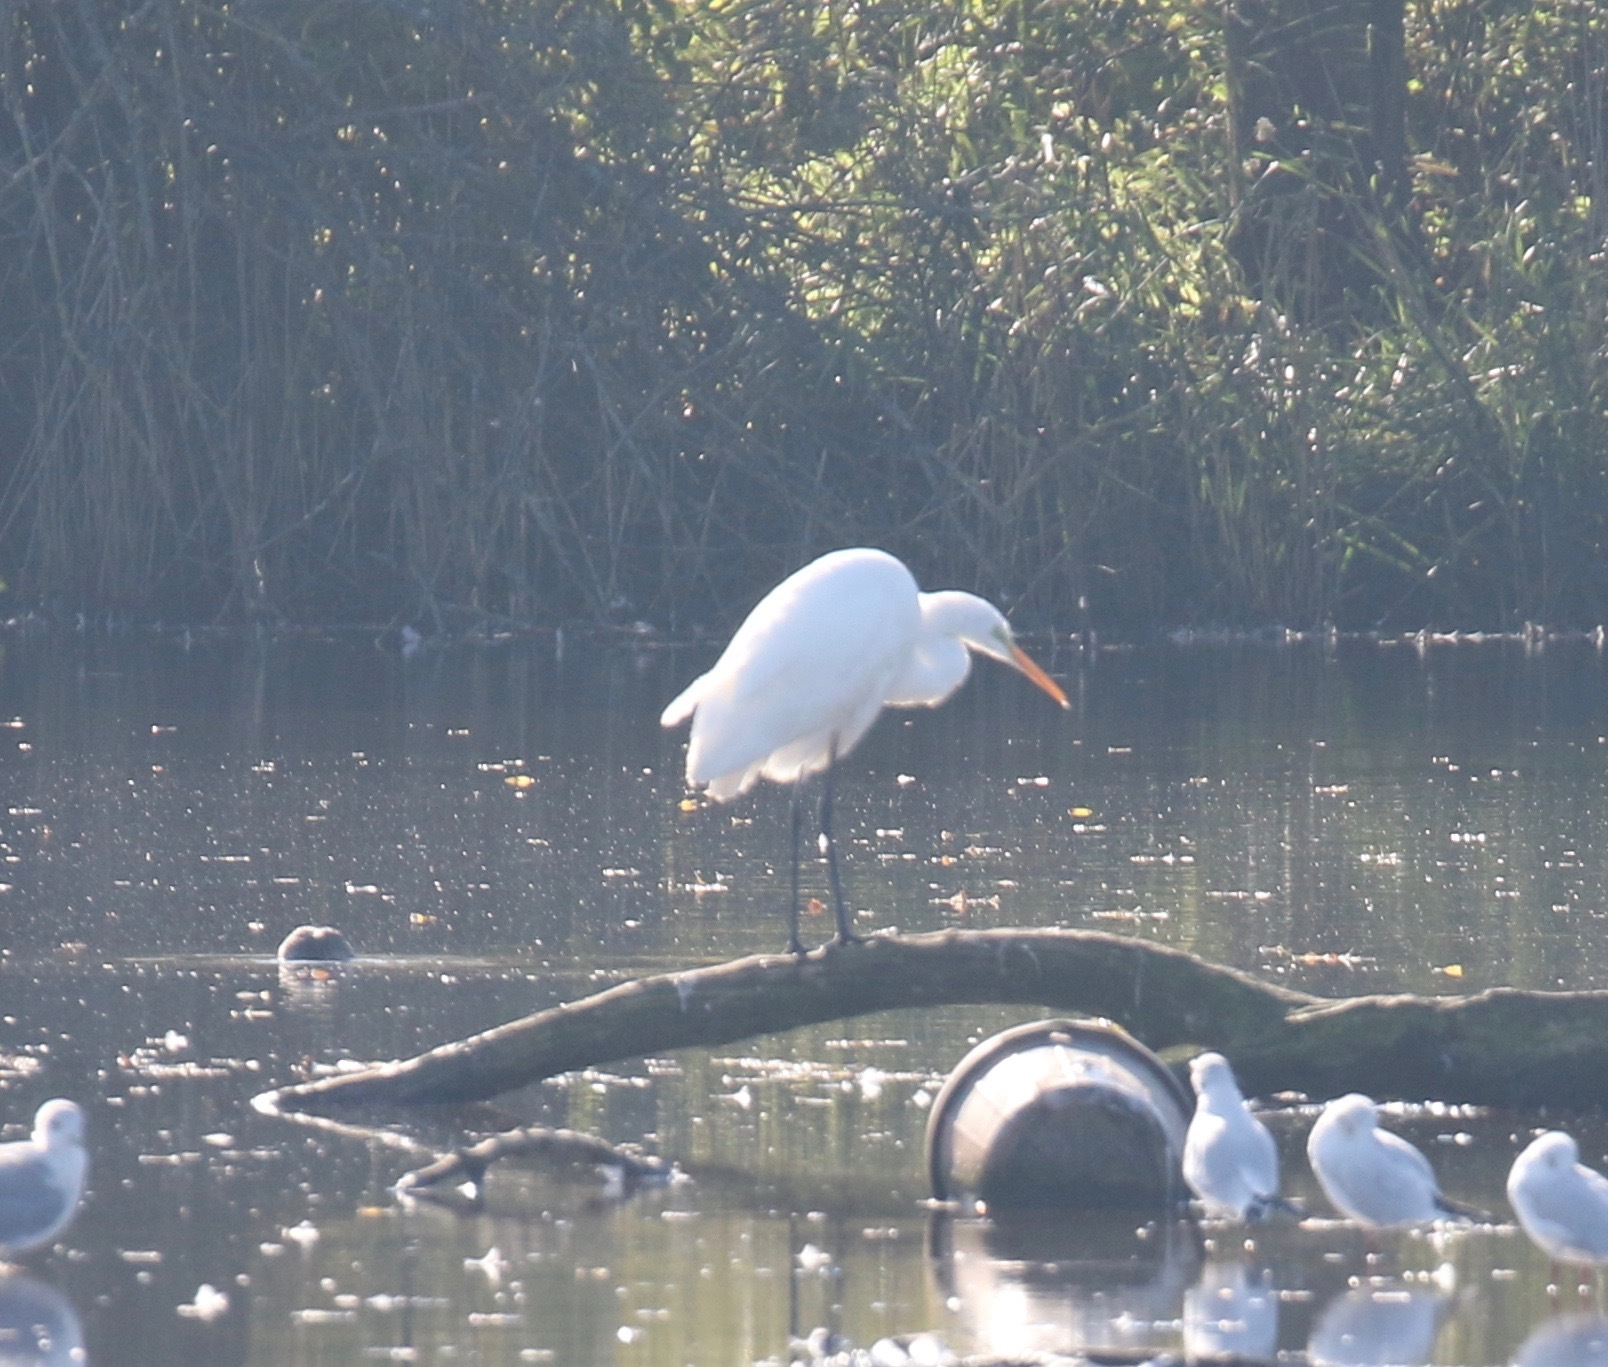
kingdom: Animalia
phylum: Chordata
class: Aves
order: Pelecaniformes
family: Ardeidae
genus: Ardea
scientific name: Ardea alba
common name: Great egret
